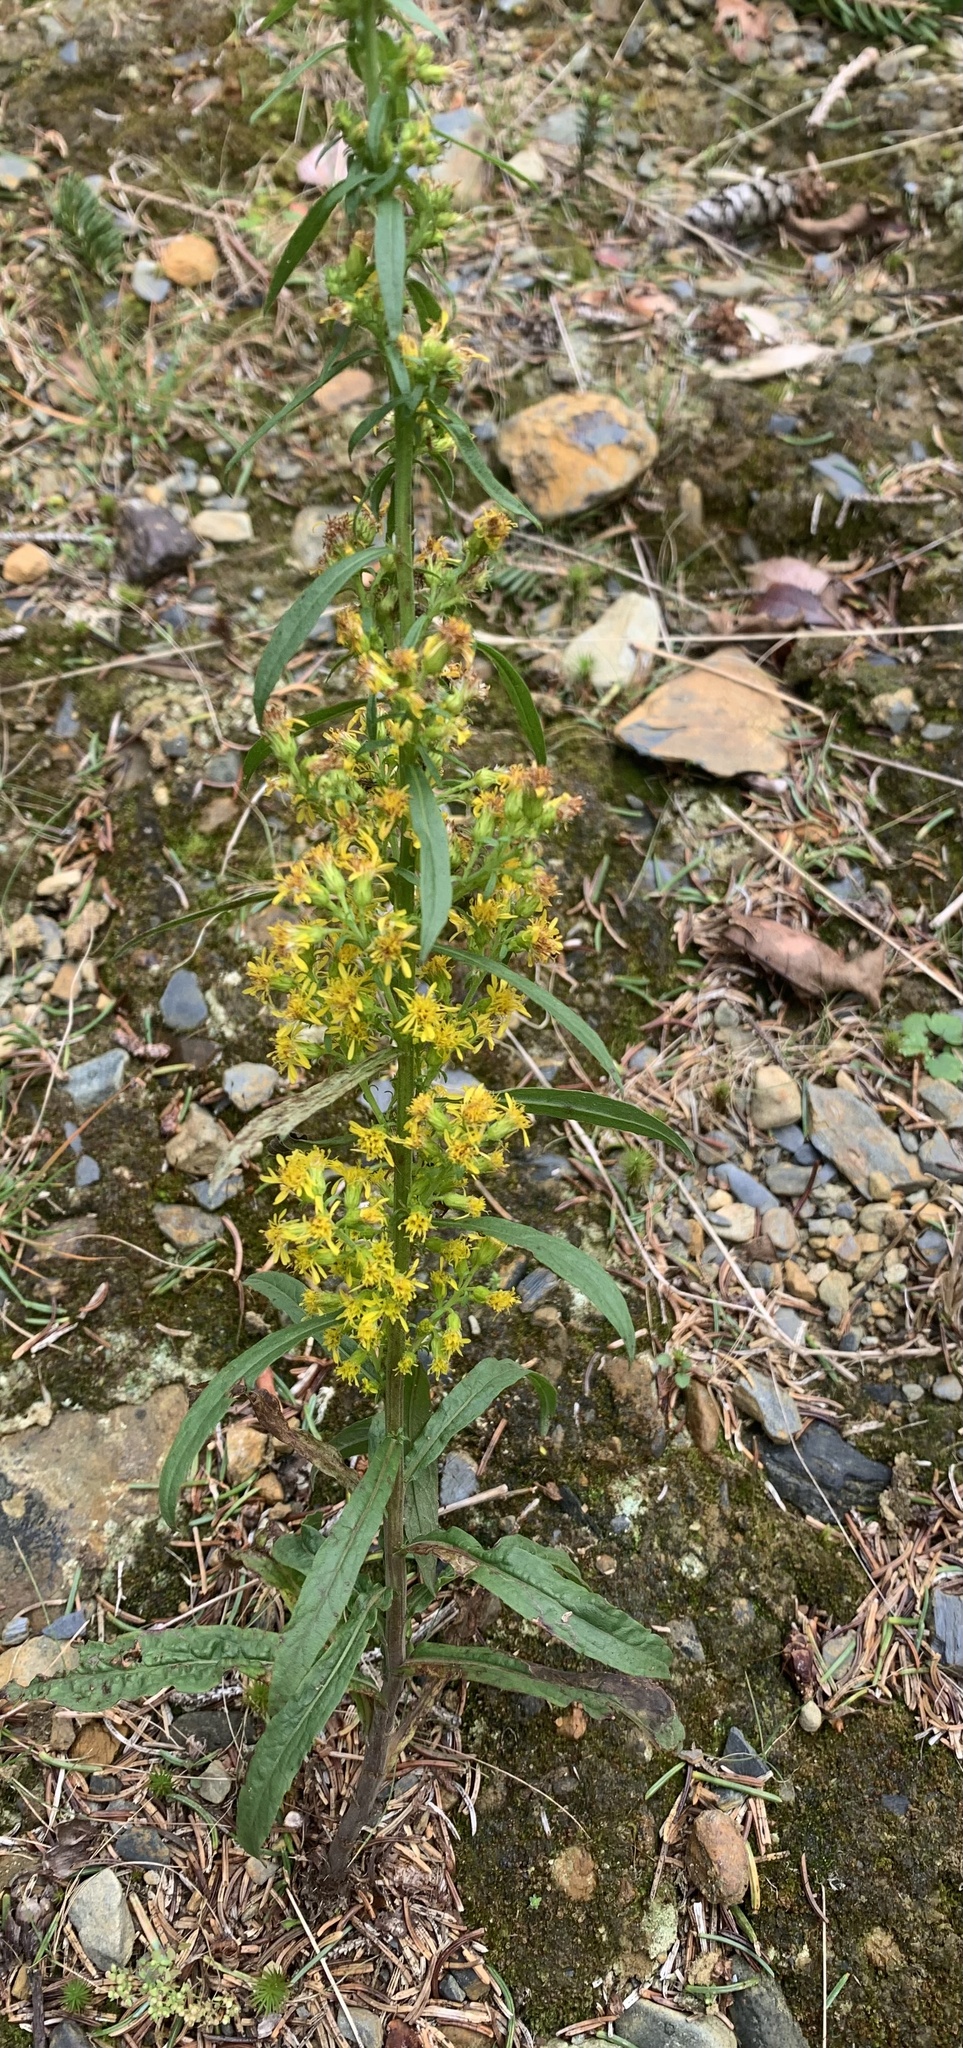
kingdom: Plantae
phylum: Tracheophyta
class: Magnoliopsida
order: Asterales
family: Asteraceae
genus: Solidago
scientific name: Solidago puberula
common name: Downy goldenrod
